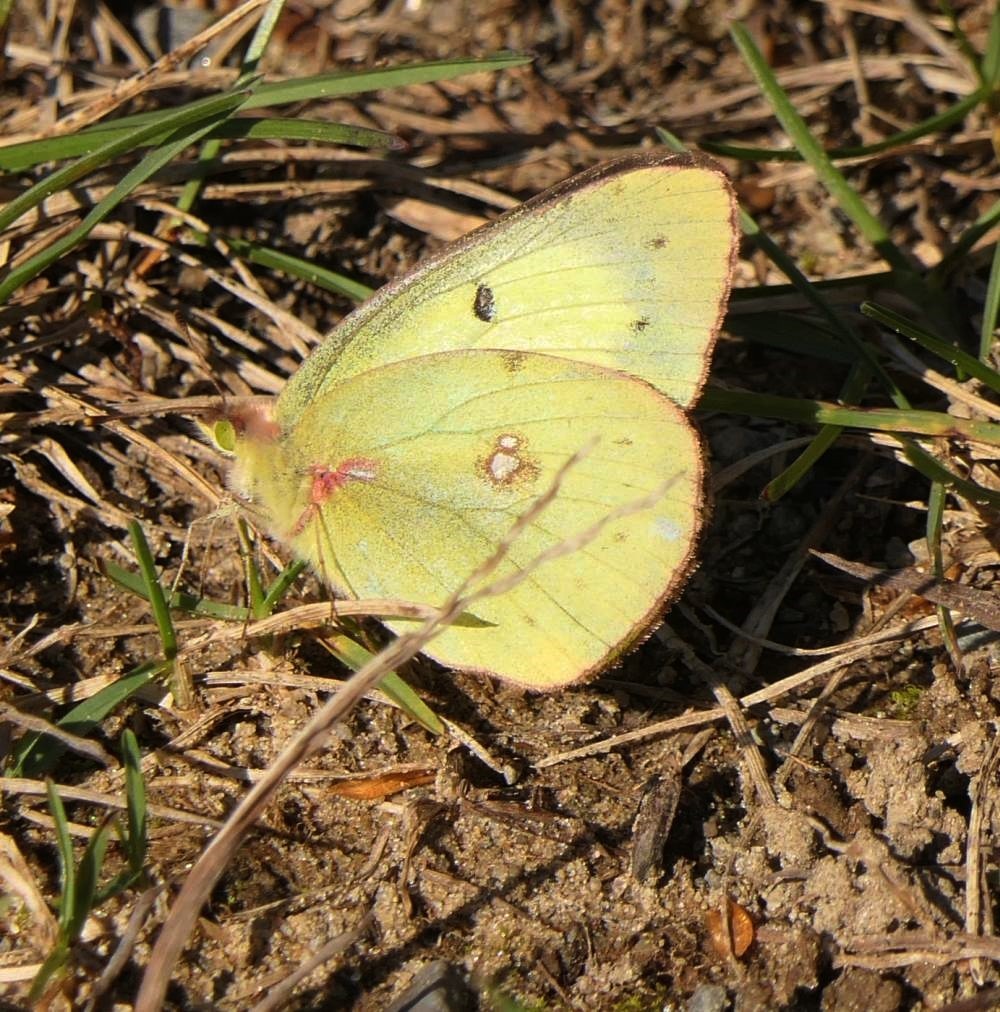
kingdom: Animalia
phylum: Arthropoda
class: Insecta
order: Lepidoptera
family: Pieridae
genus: Colias
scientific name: Colias philodice
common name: Clouded sulphur
